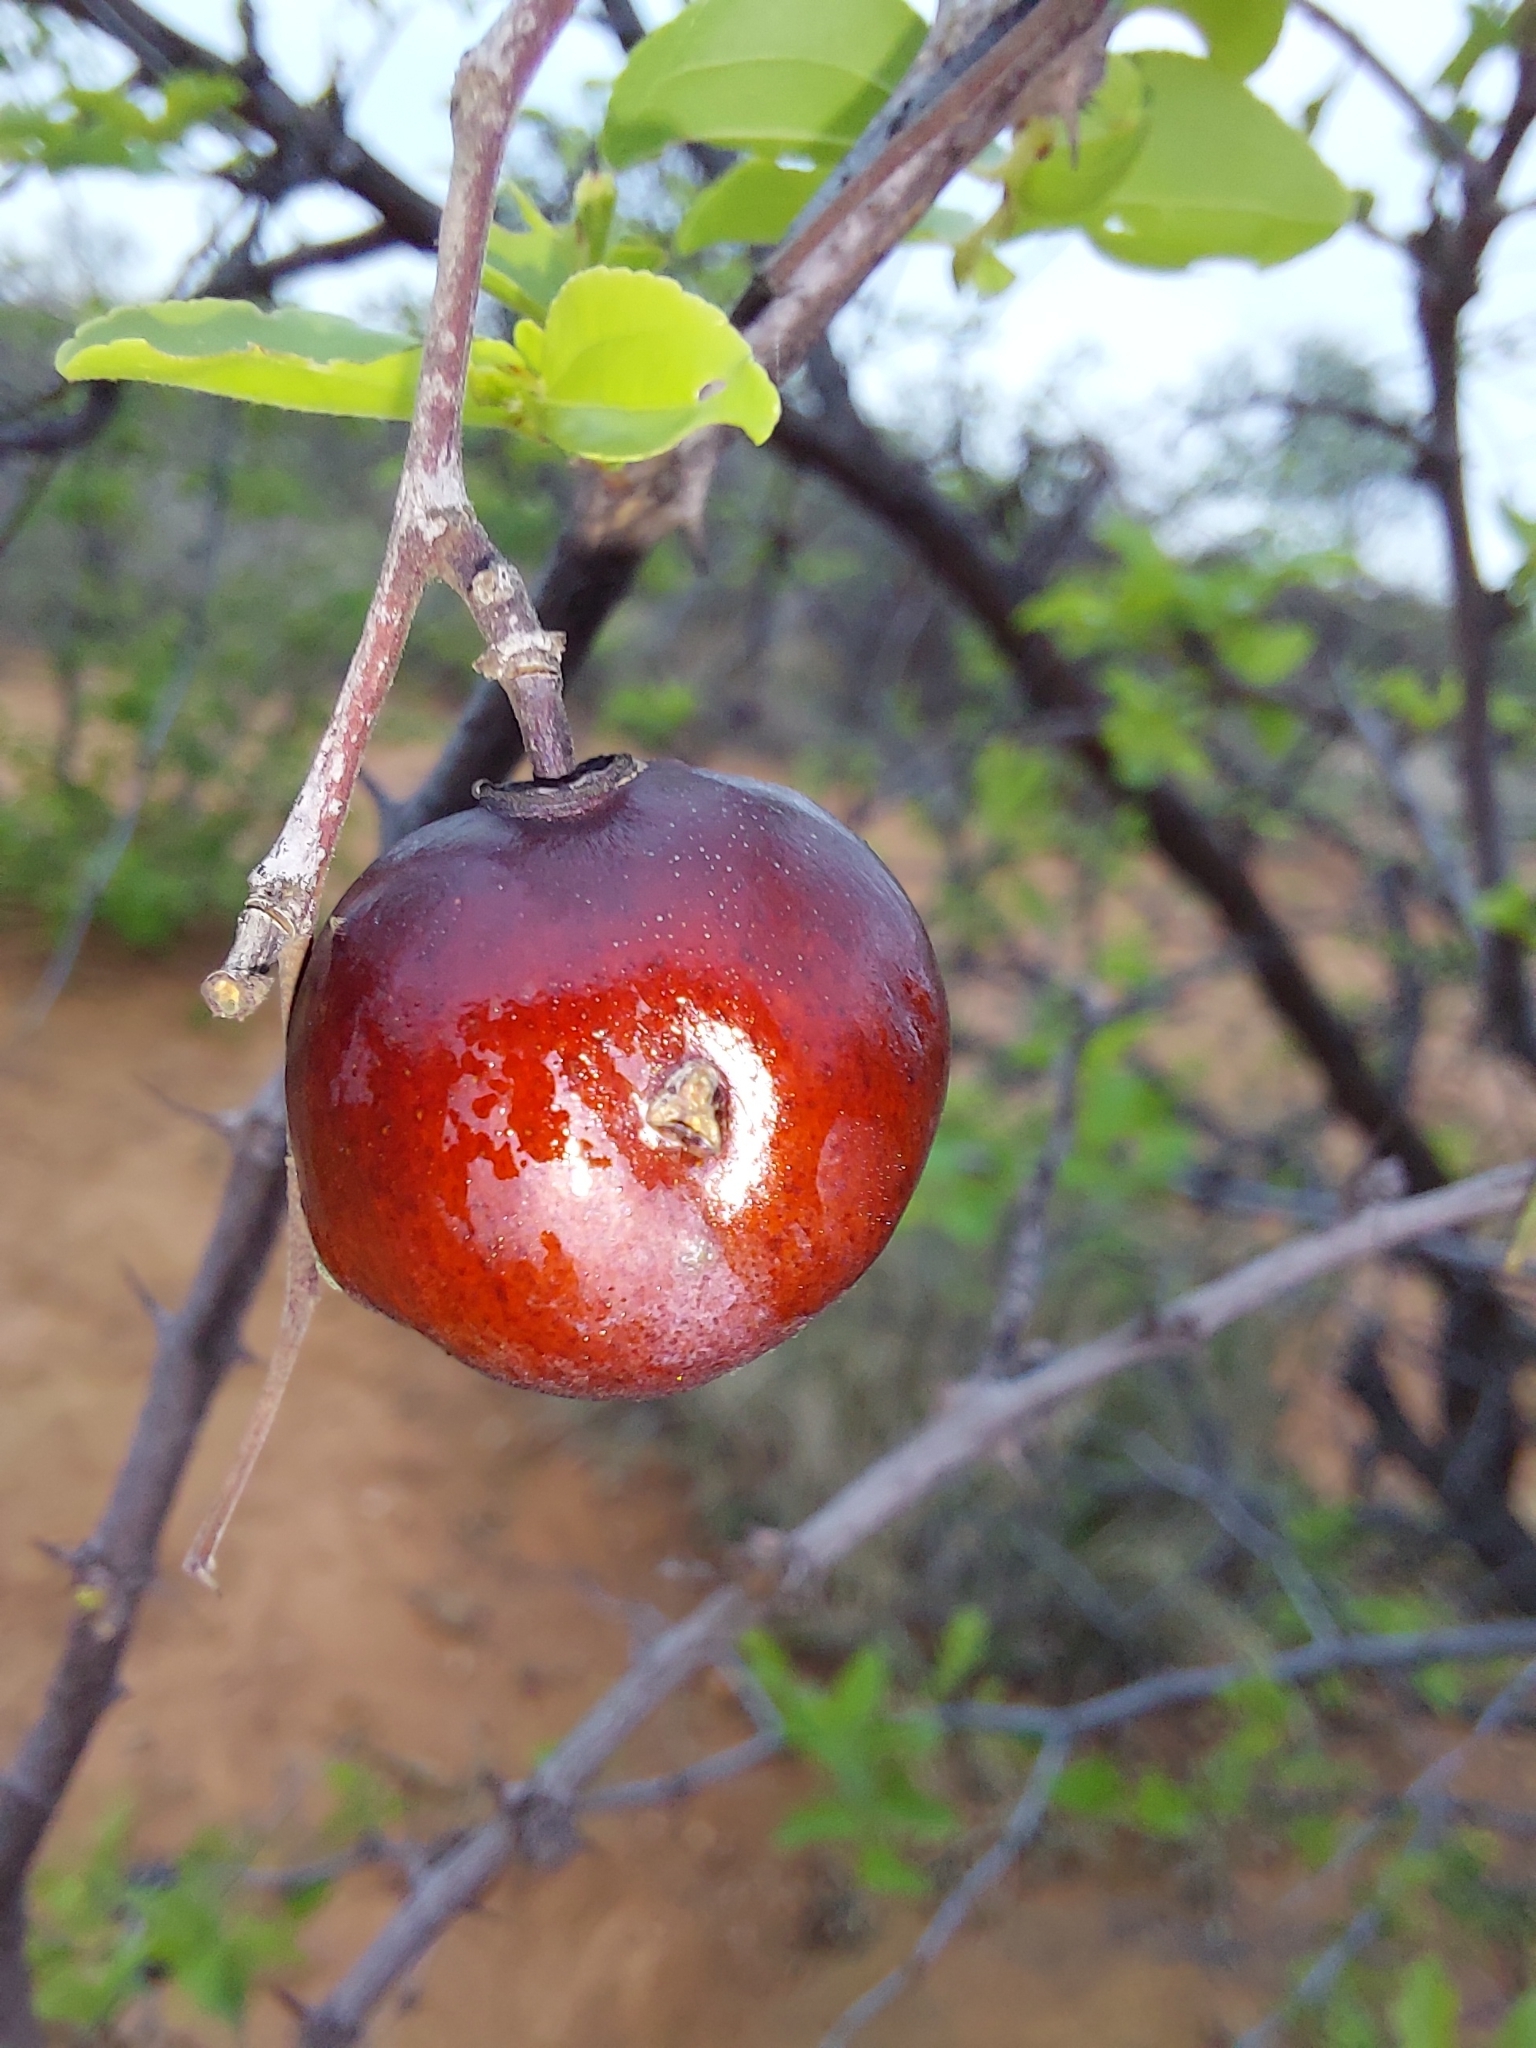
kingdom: Plantae
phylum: Tracheophyta
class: Magnoliopsida
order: Rosales
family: Rhamnaceae
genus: Ziziphus
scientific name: Ziziphus mucronata
